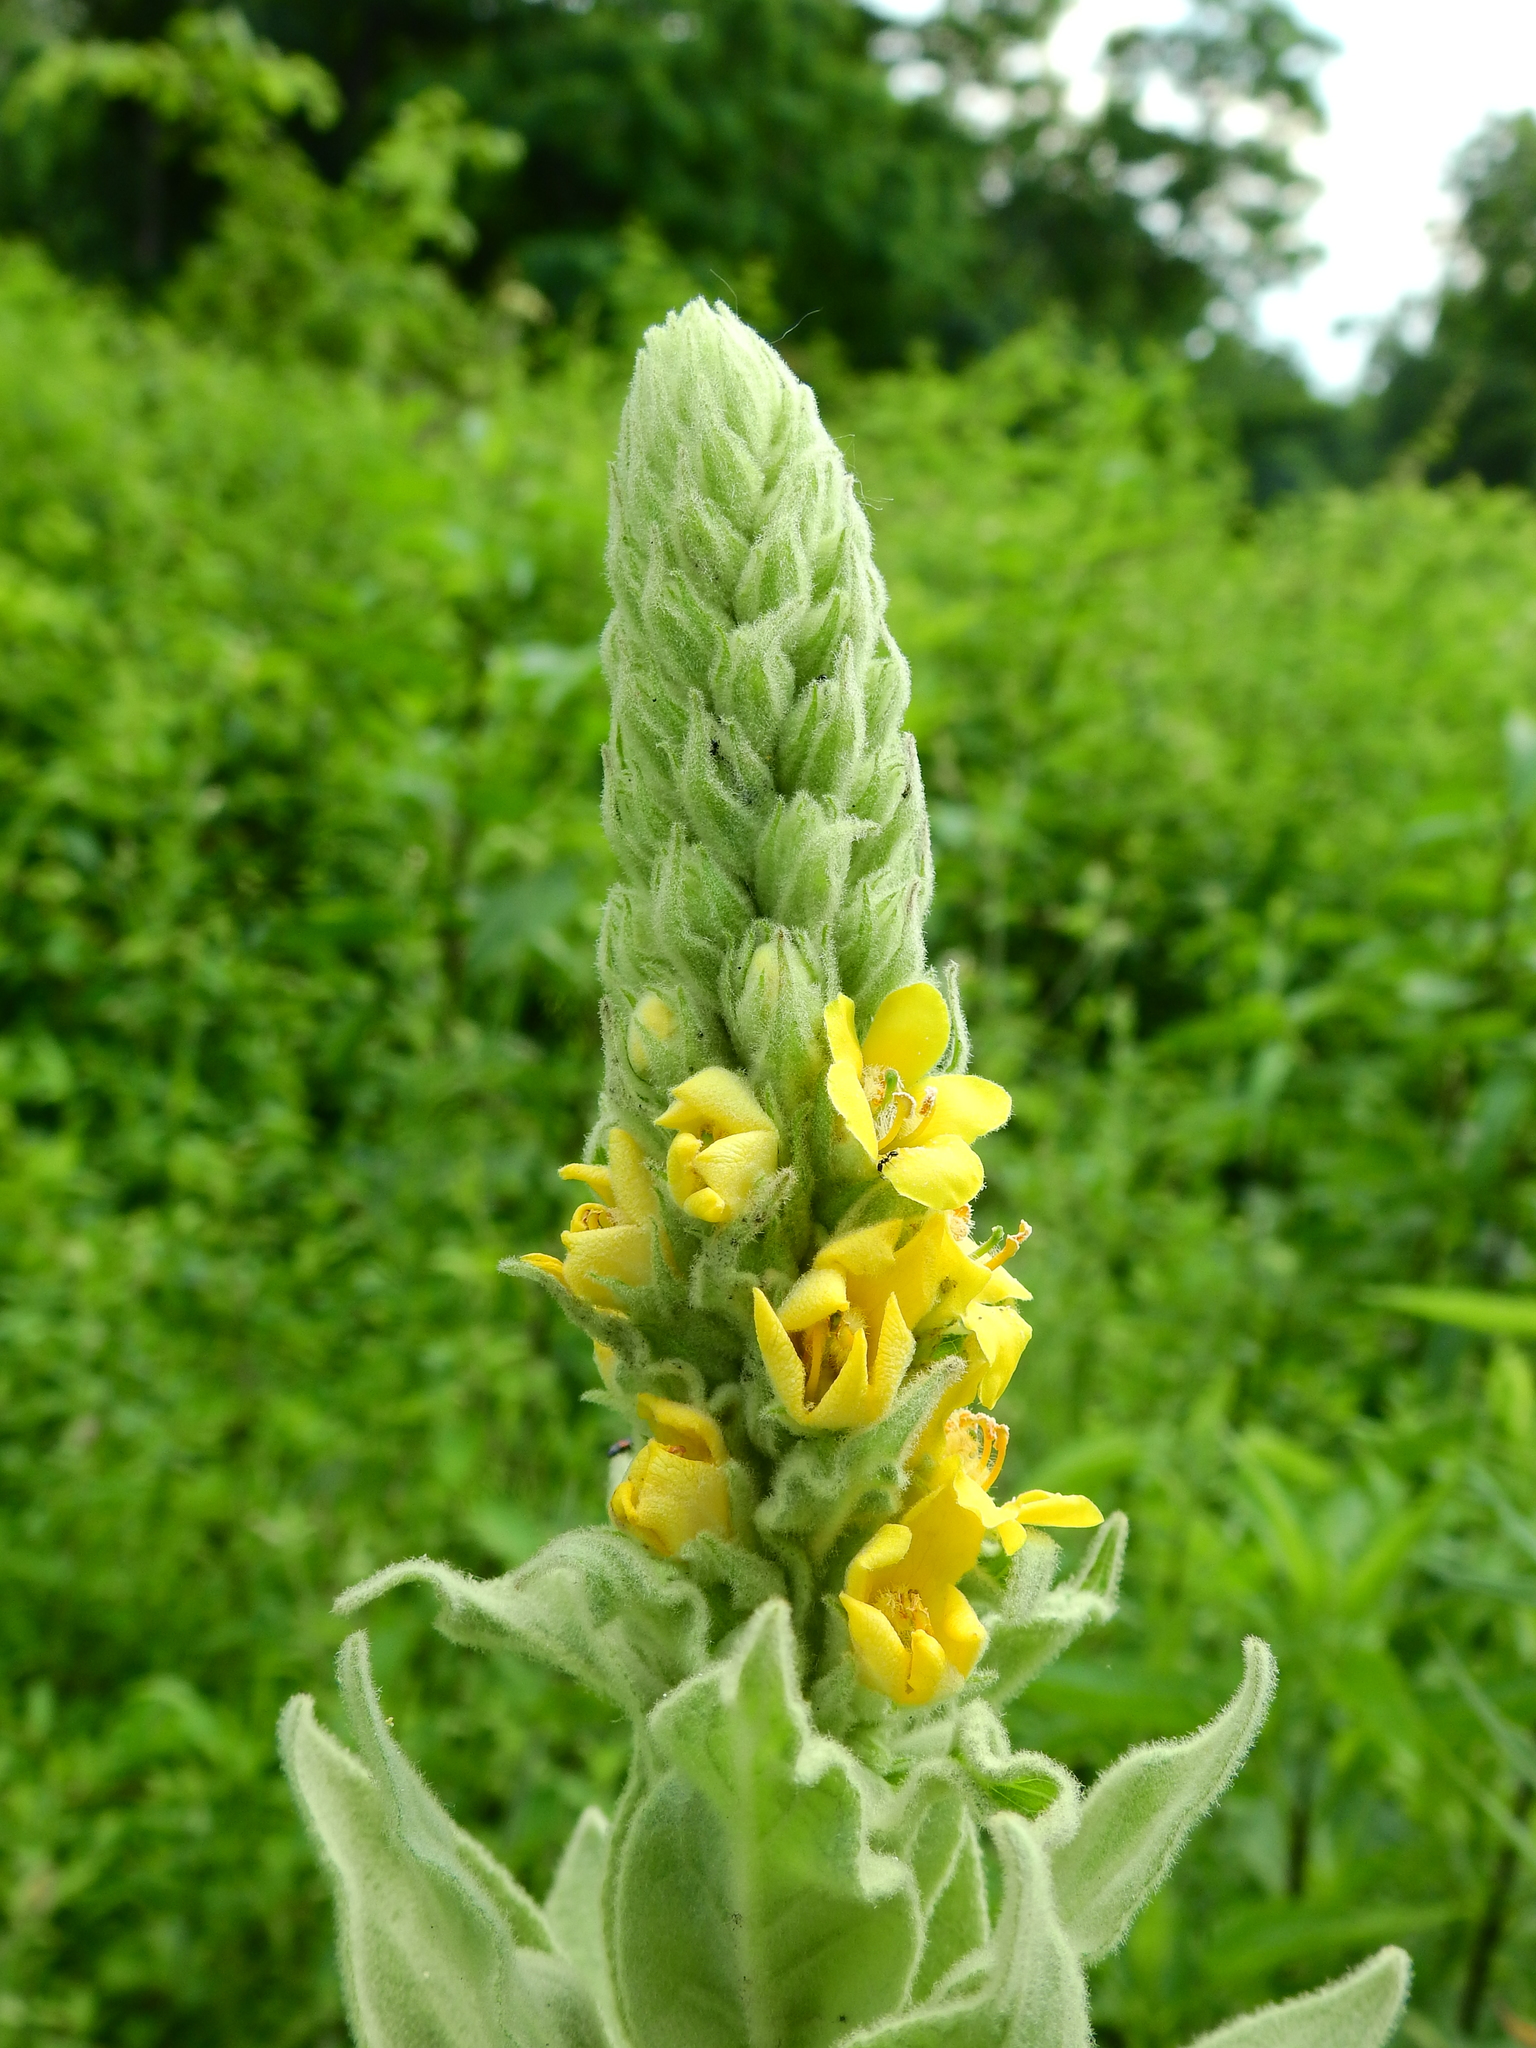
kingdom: Plantae
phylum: Tracheophyta
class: Magnoliopsida
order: Lamiales
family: Scrophulariaceae
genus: Verbascum
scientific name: Verbascum thapsus
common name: Common mullein
